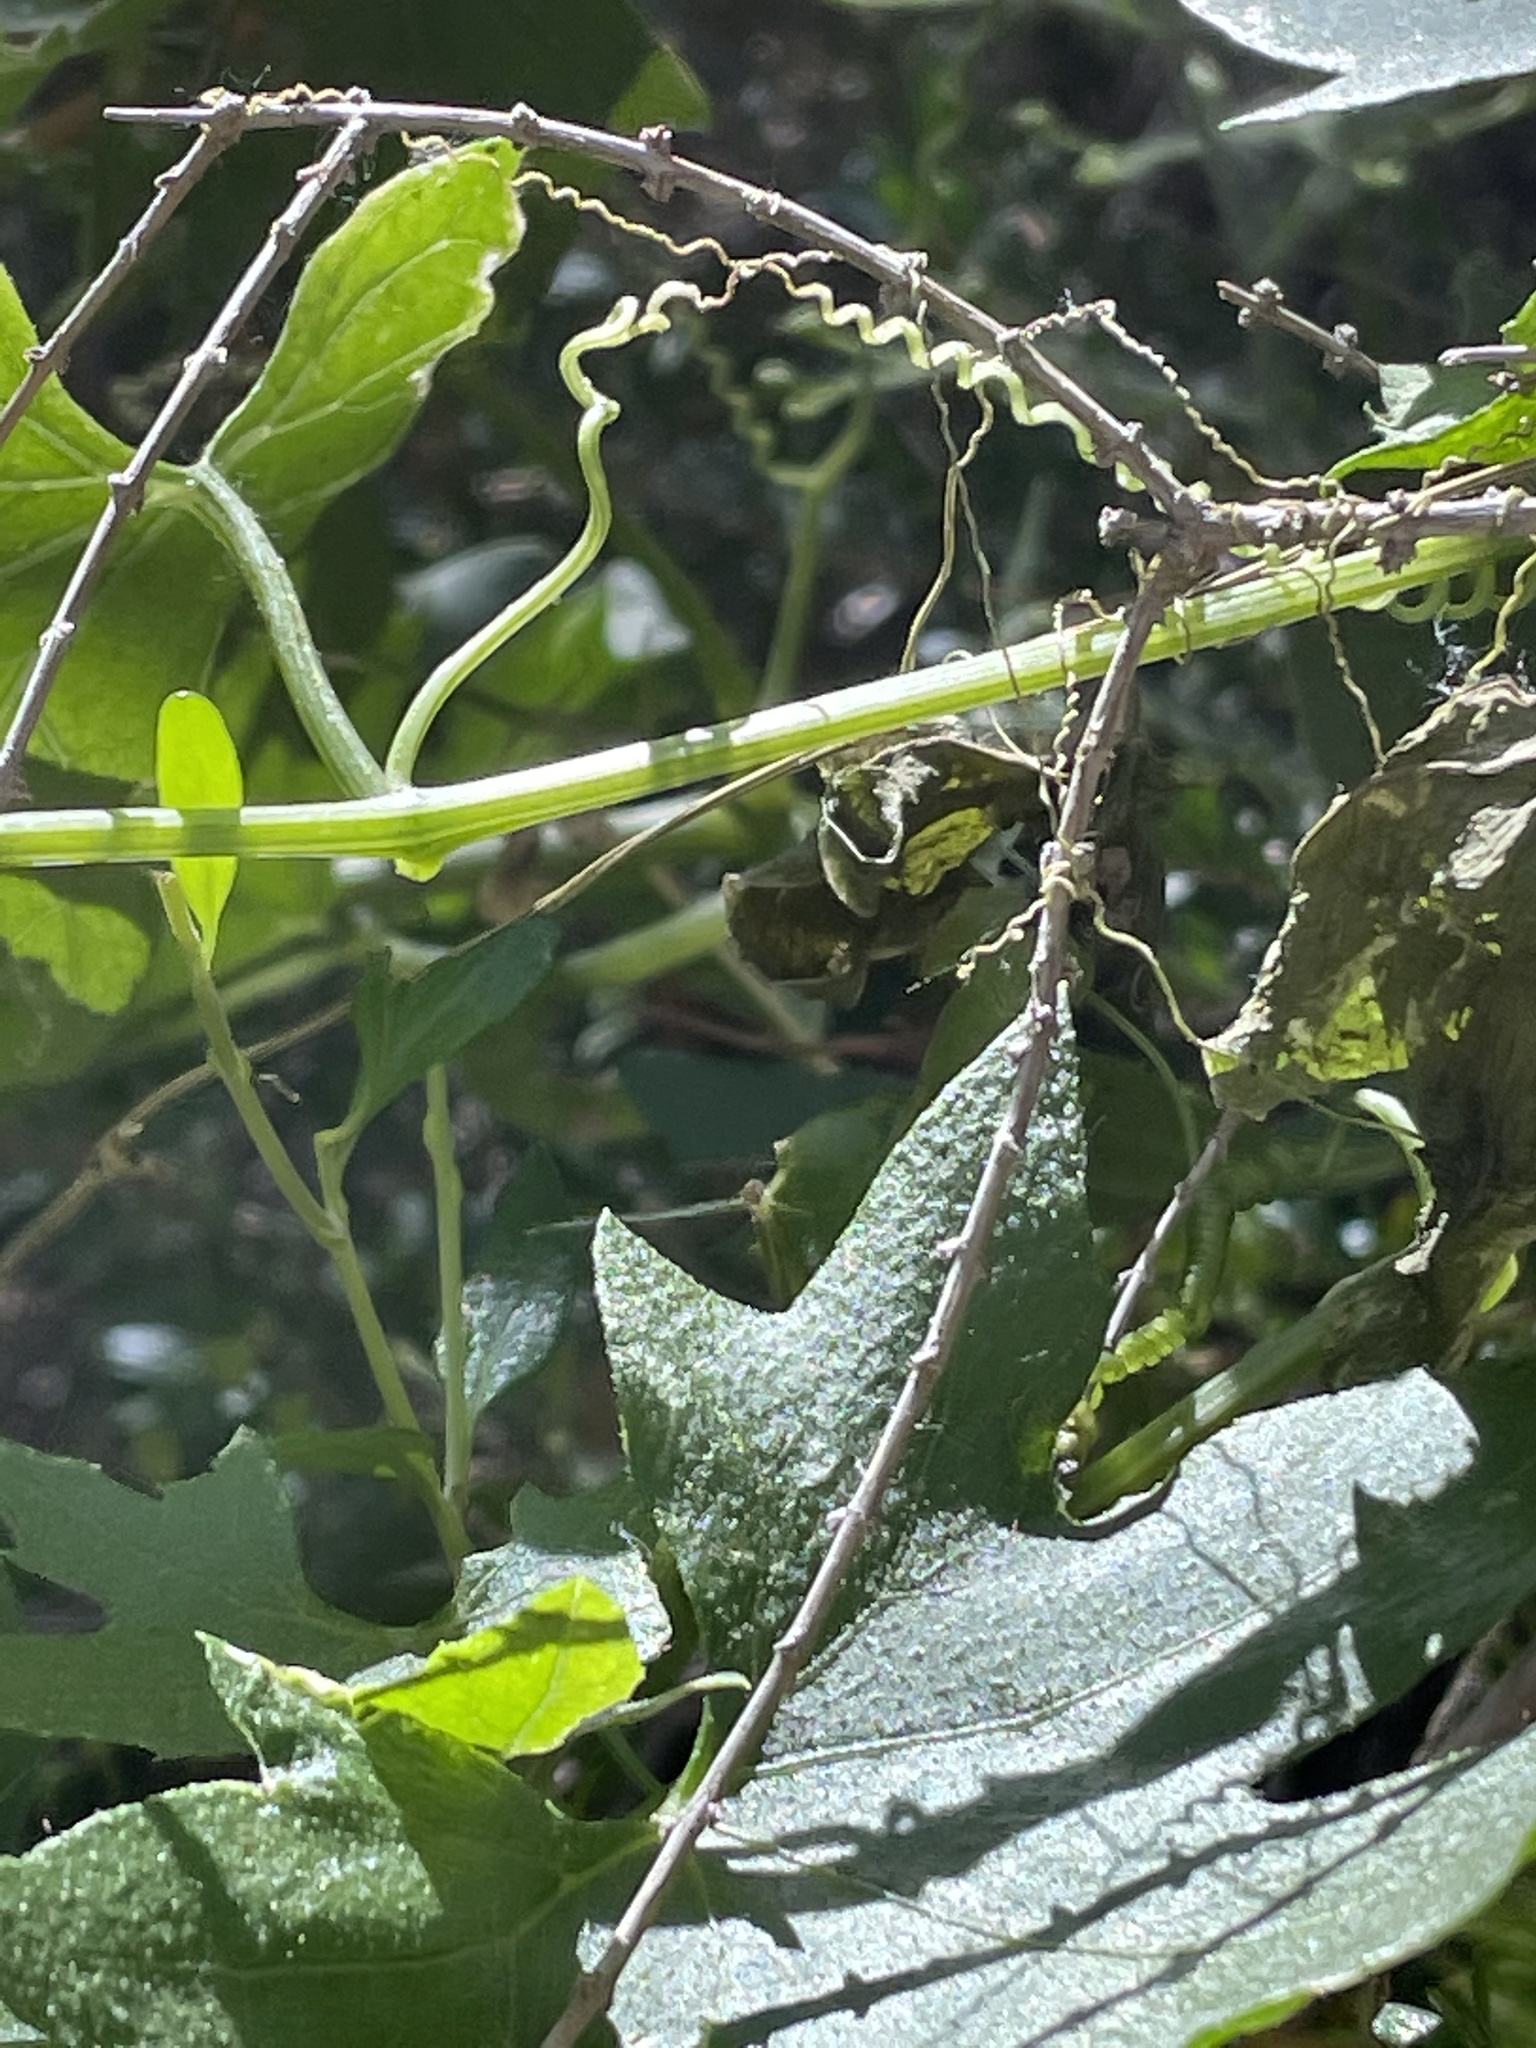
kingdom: Plantae
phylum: Tracheophyta
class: Magnoliopsida
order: Cucurbitales
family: Cucurbitaceae
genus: Marah
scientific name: Marah macrocarpa
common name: Cucamonga manroot
